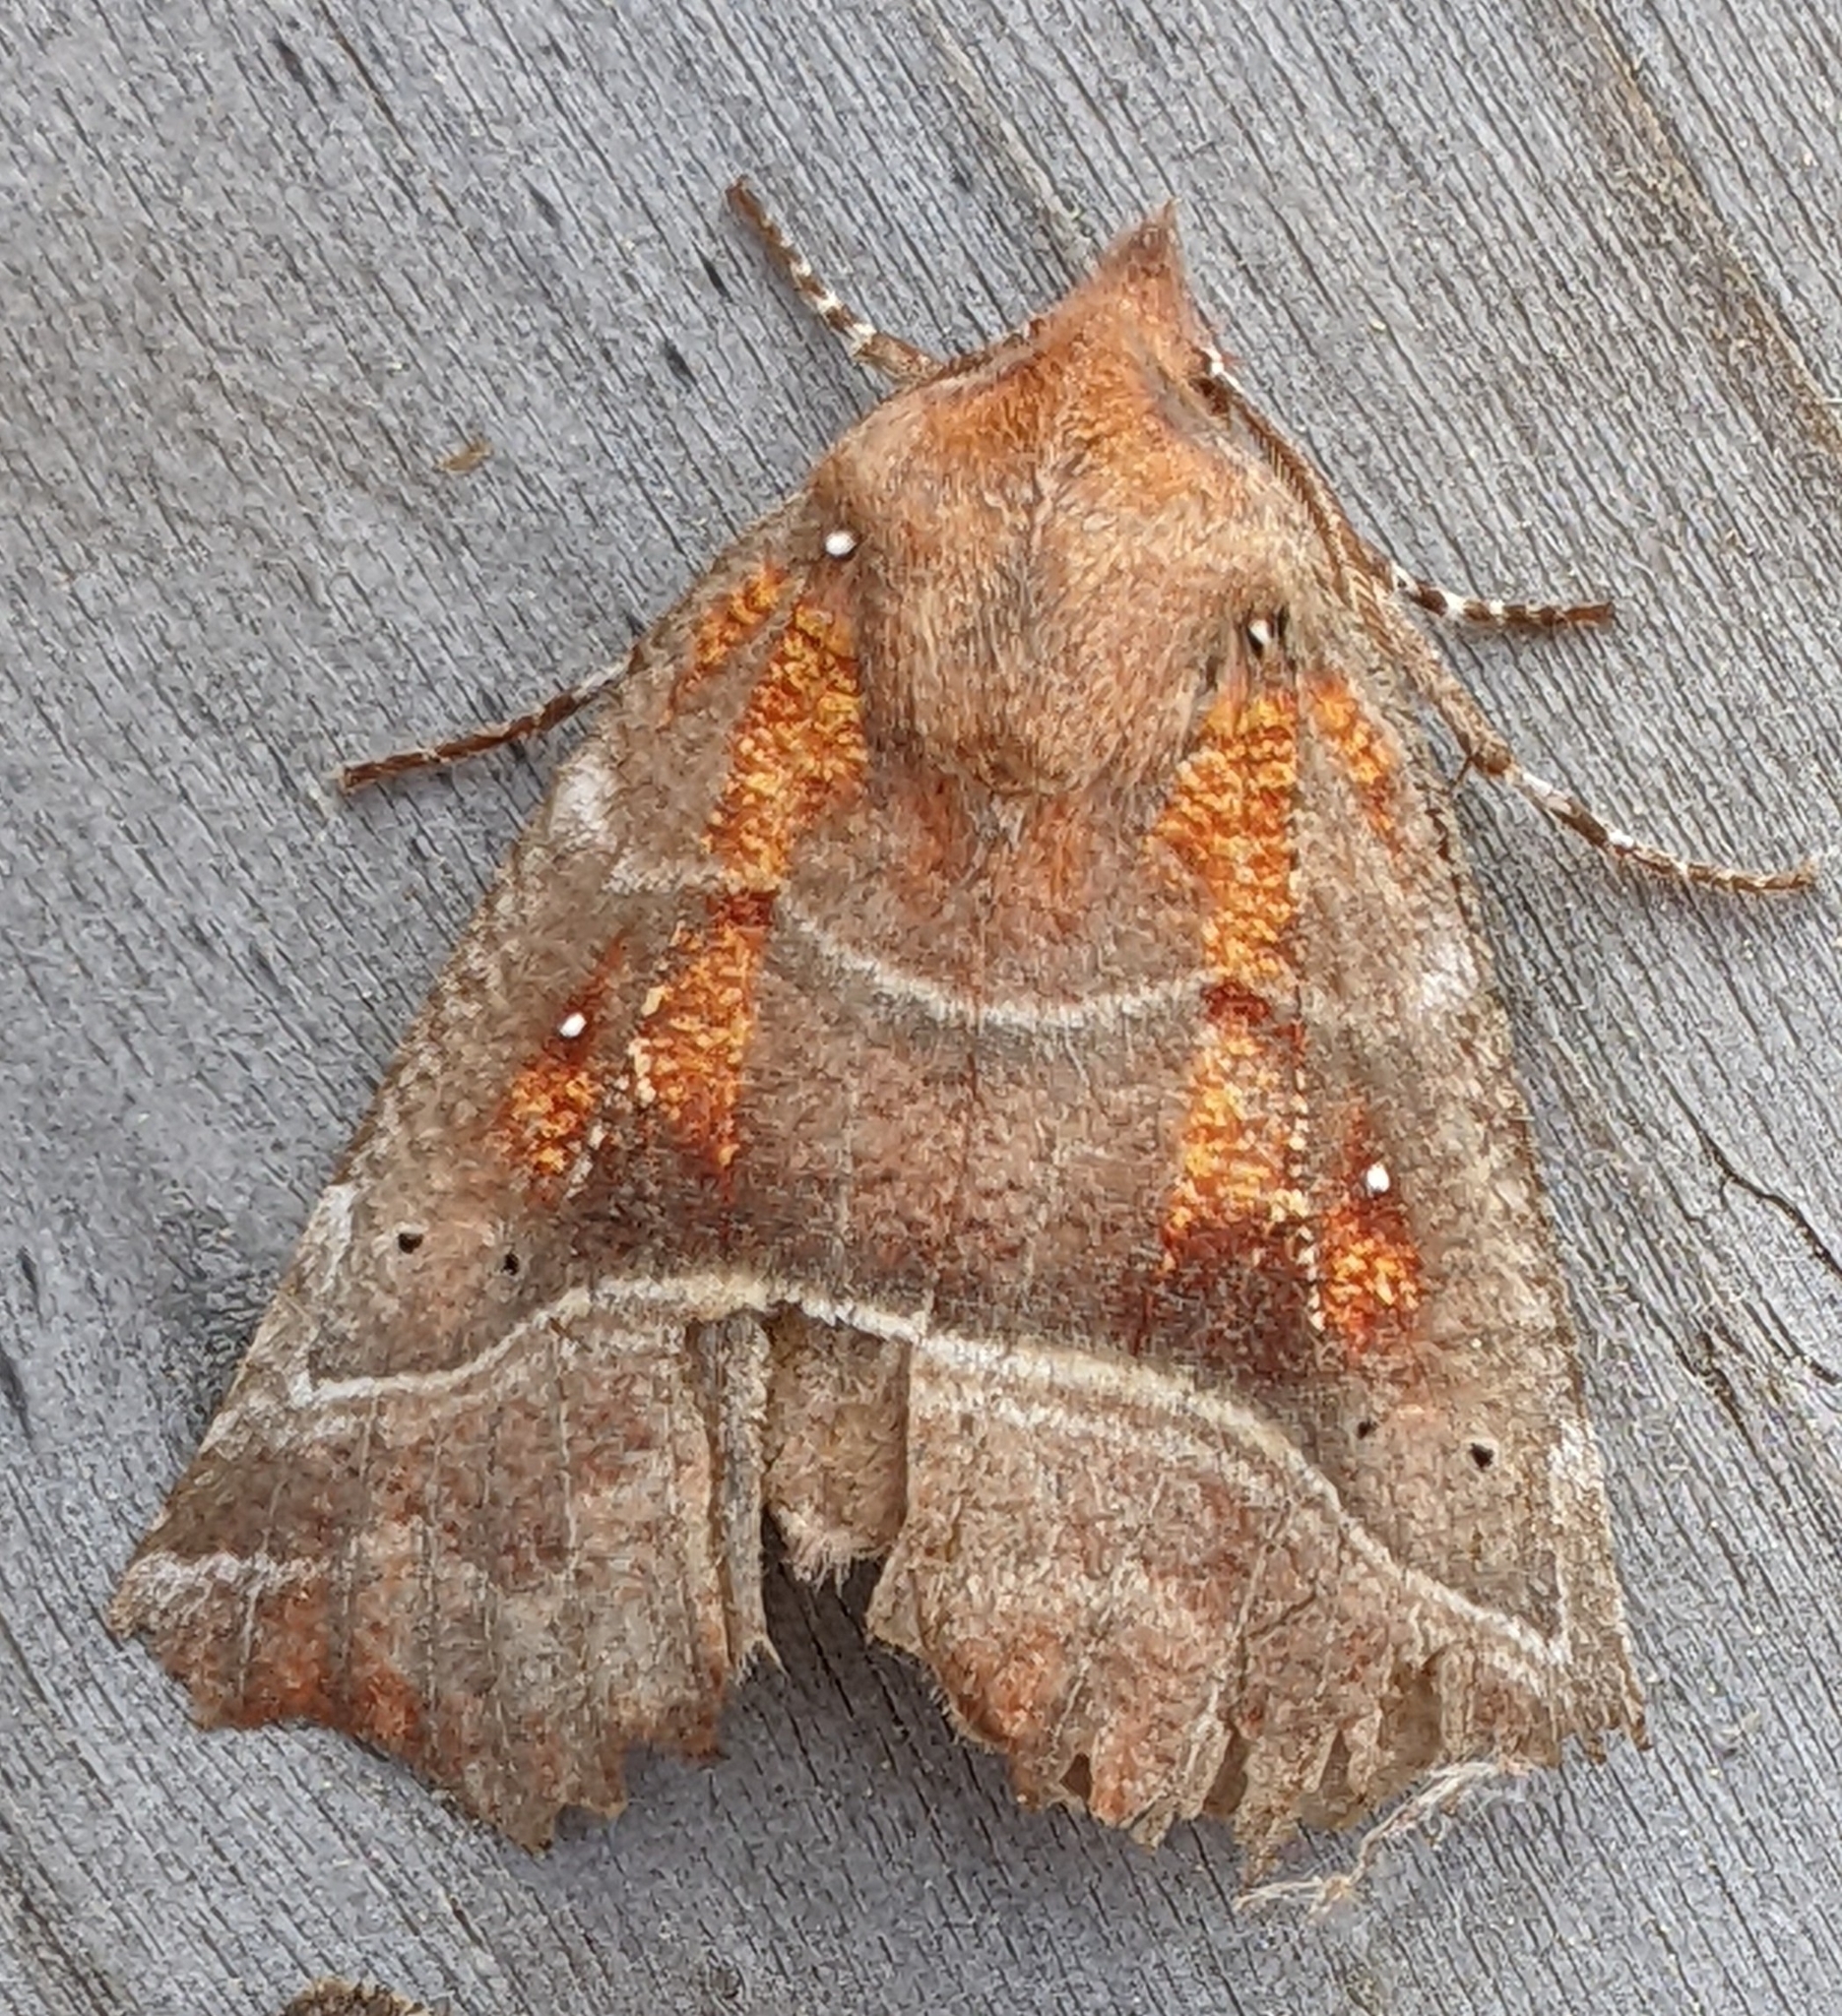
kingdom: Animalia
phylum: Arthropoda
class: Insecta
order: Lepidoptera
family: Erebidae
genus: Scoliopteryx
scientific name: Scoliopteryx libatrix
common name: Herald
